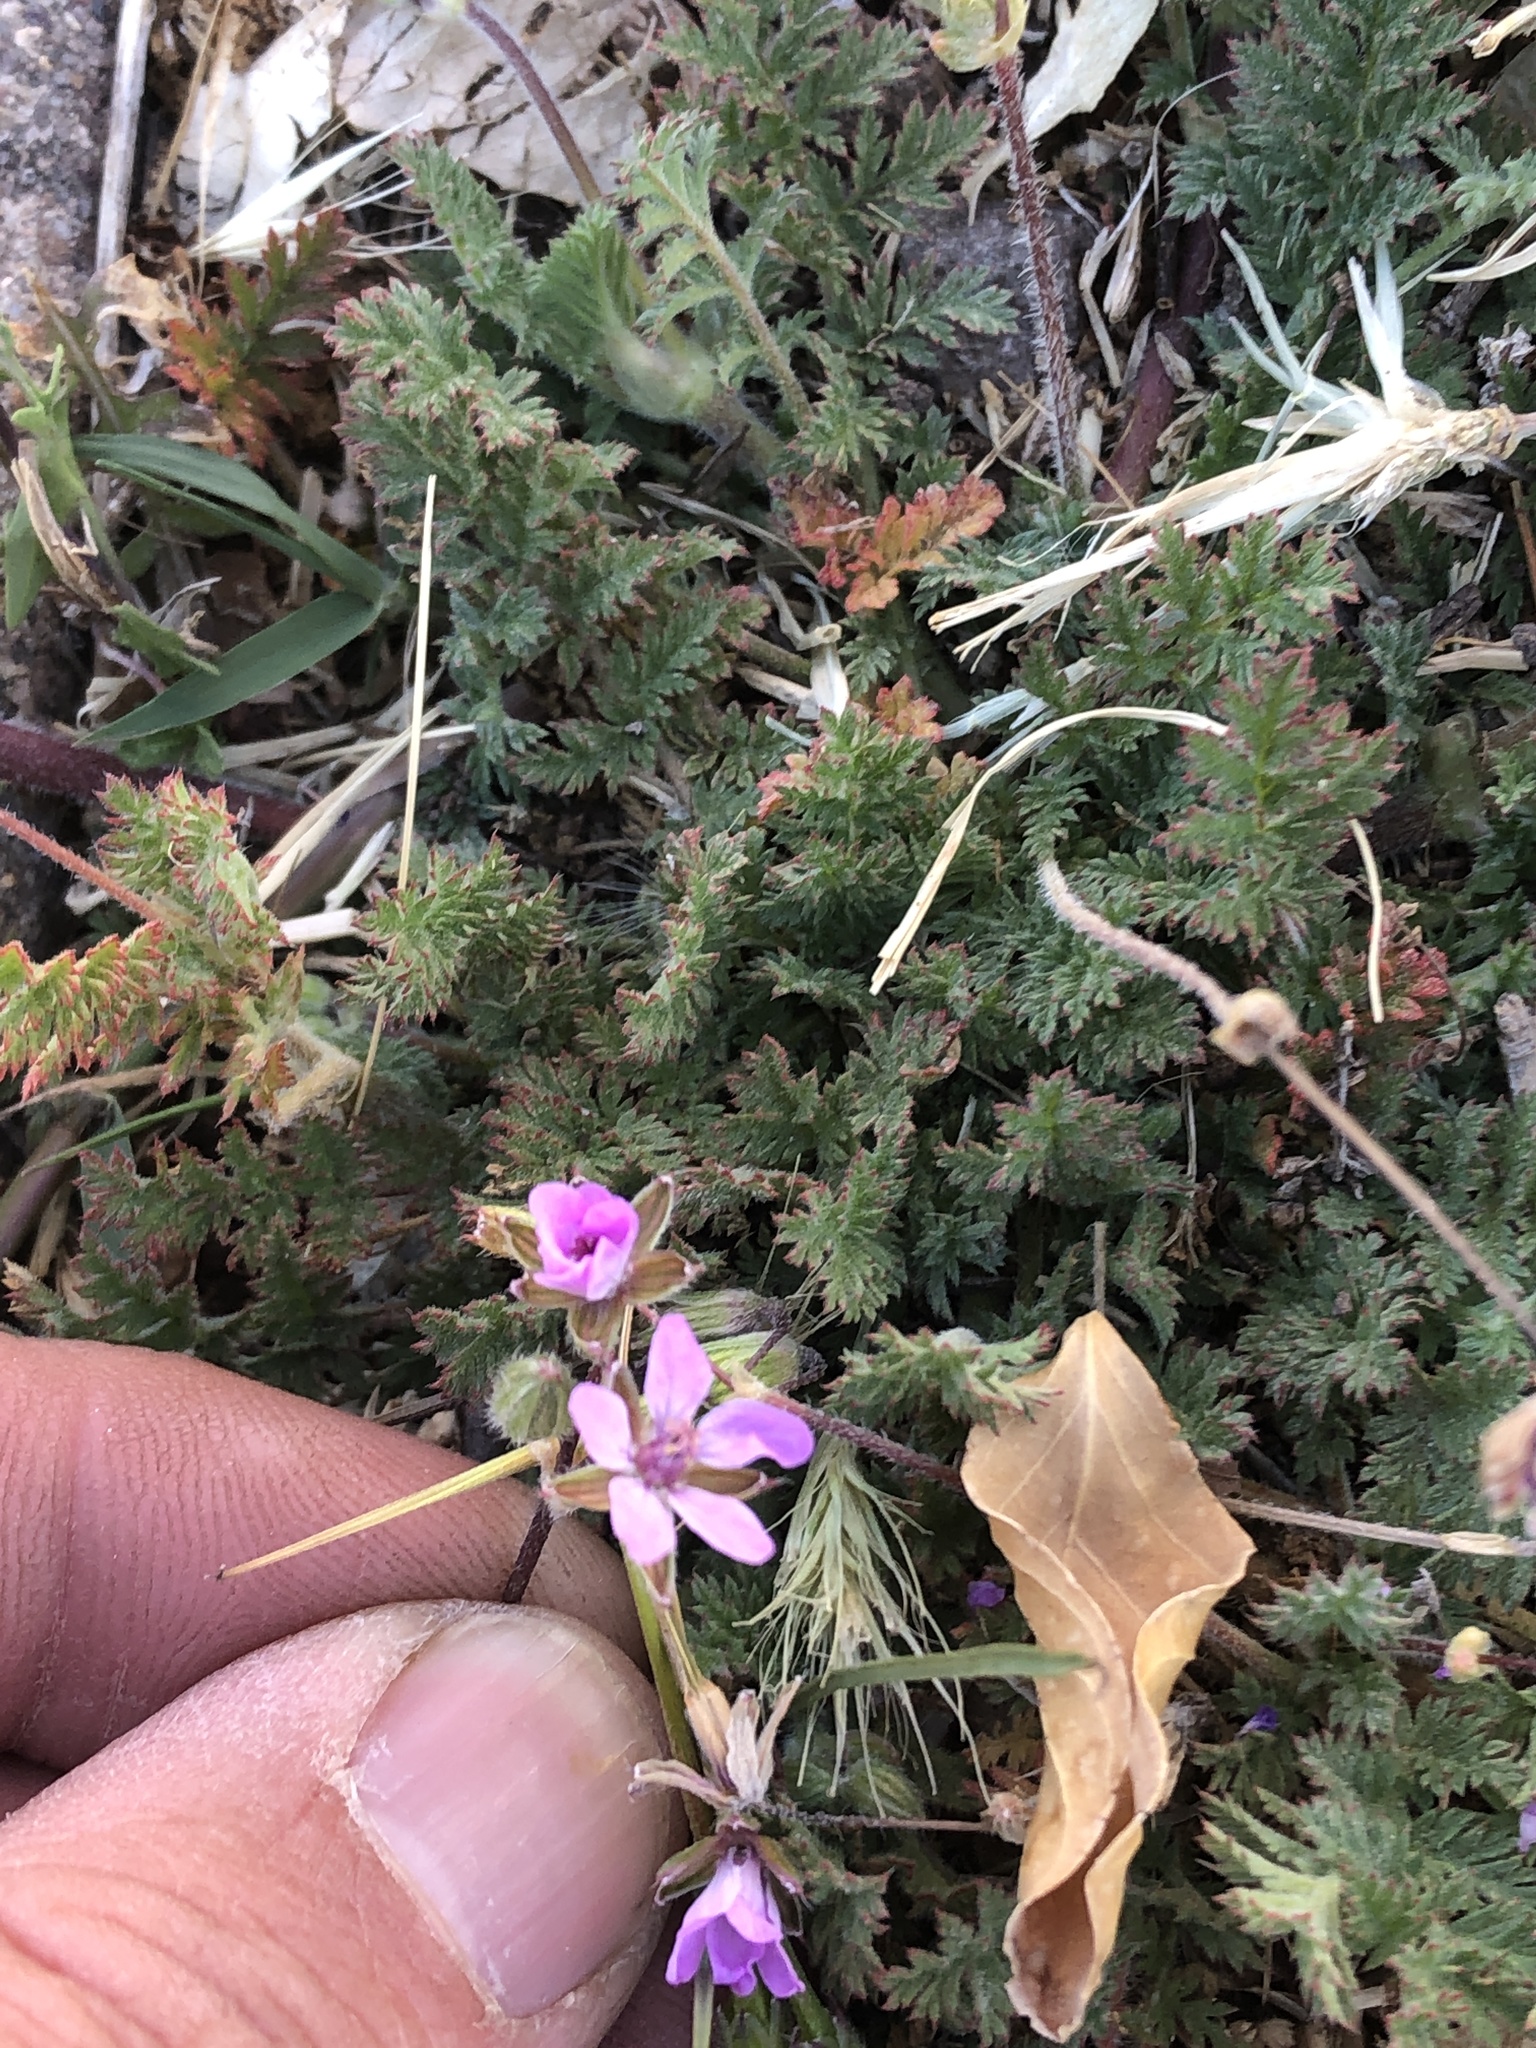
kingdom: Plantae
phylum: Tracheophyta
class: Magnoliopsida
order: Geraniales
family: Geraniaceae
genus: Erodium
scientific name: Erodium cicutarium
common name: Common stork's-bill
